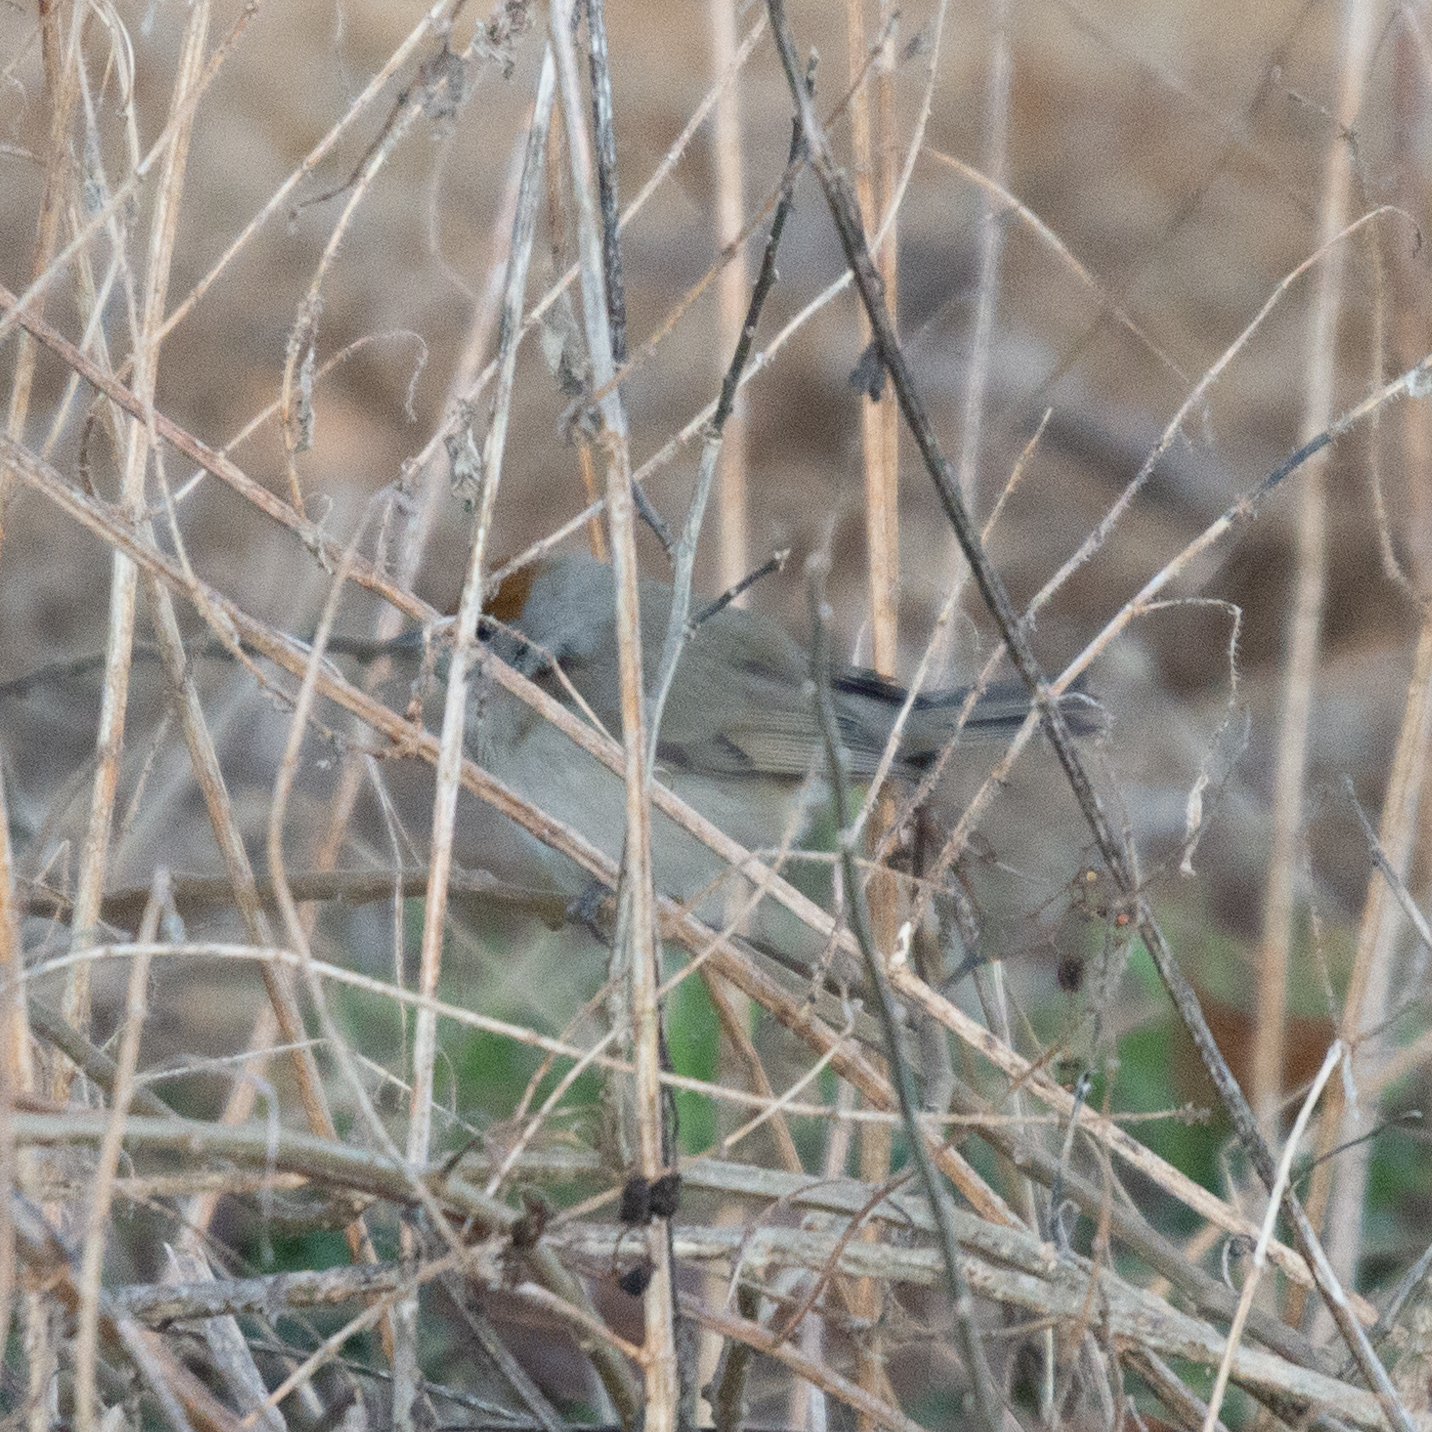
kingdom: Animalia
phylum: Chordata
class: Aves
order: Passeriformes
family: Sylviidae
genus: Sylvia
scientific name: Sylvia atricapilla
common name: Eurasian blackcap
